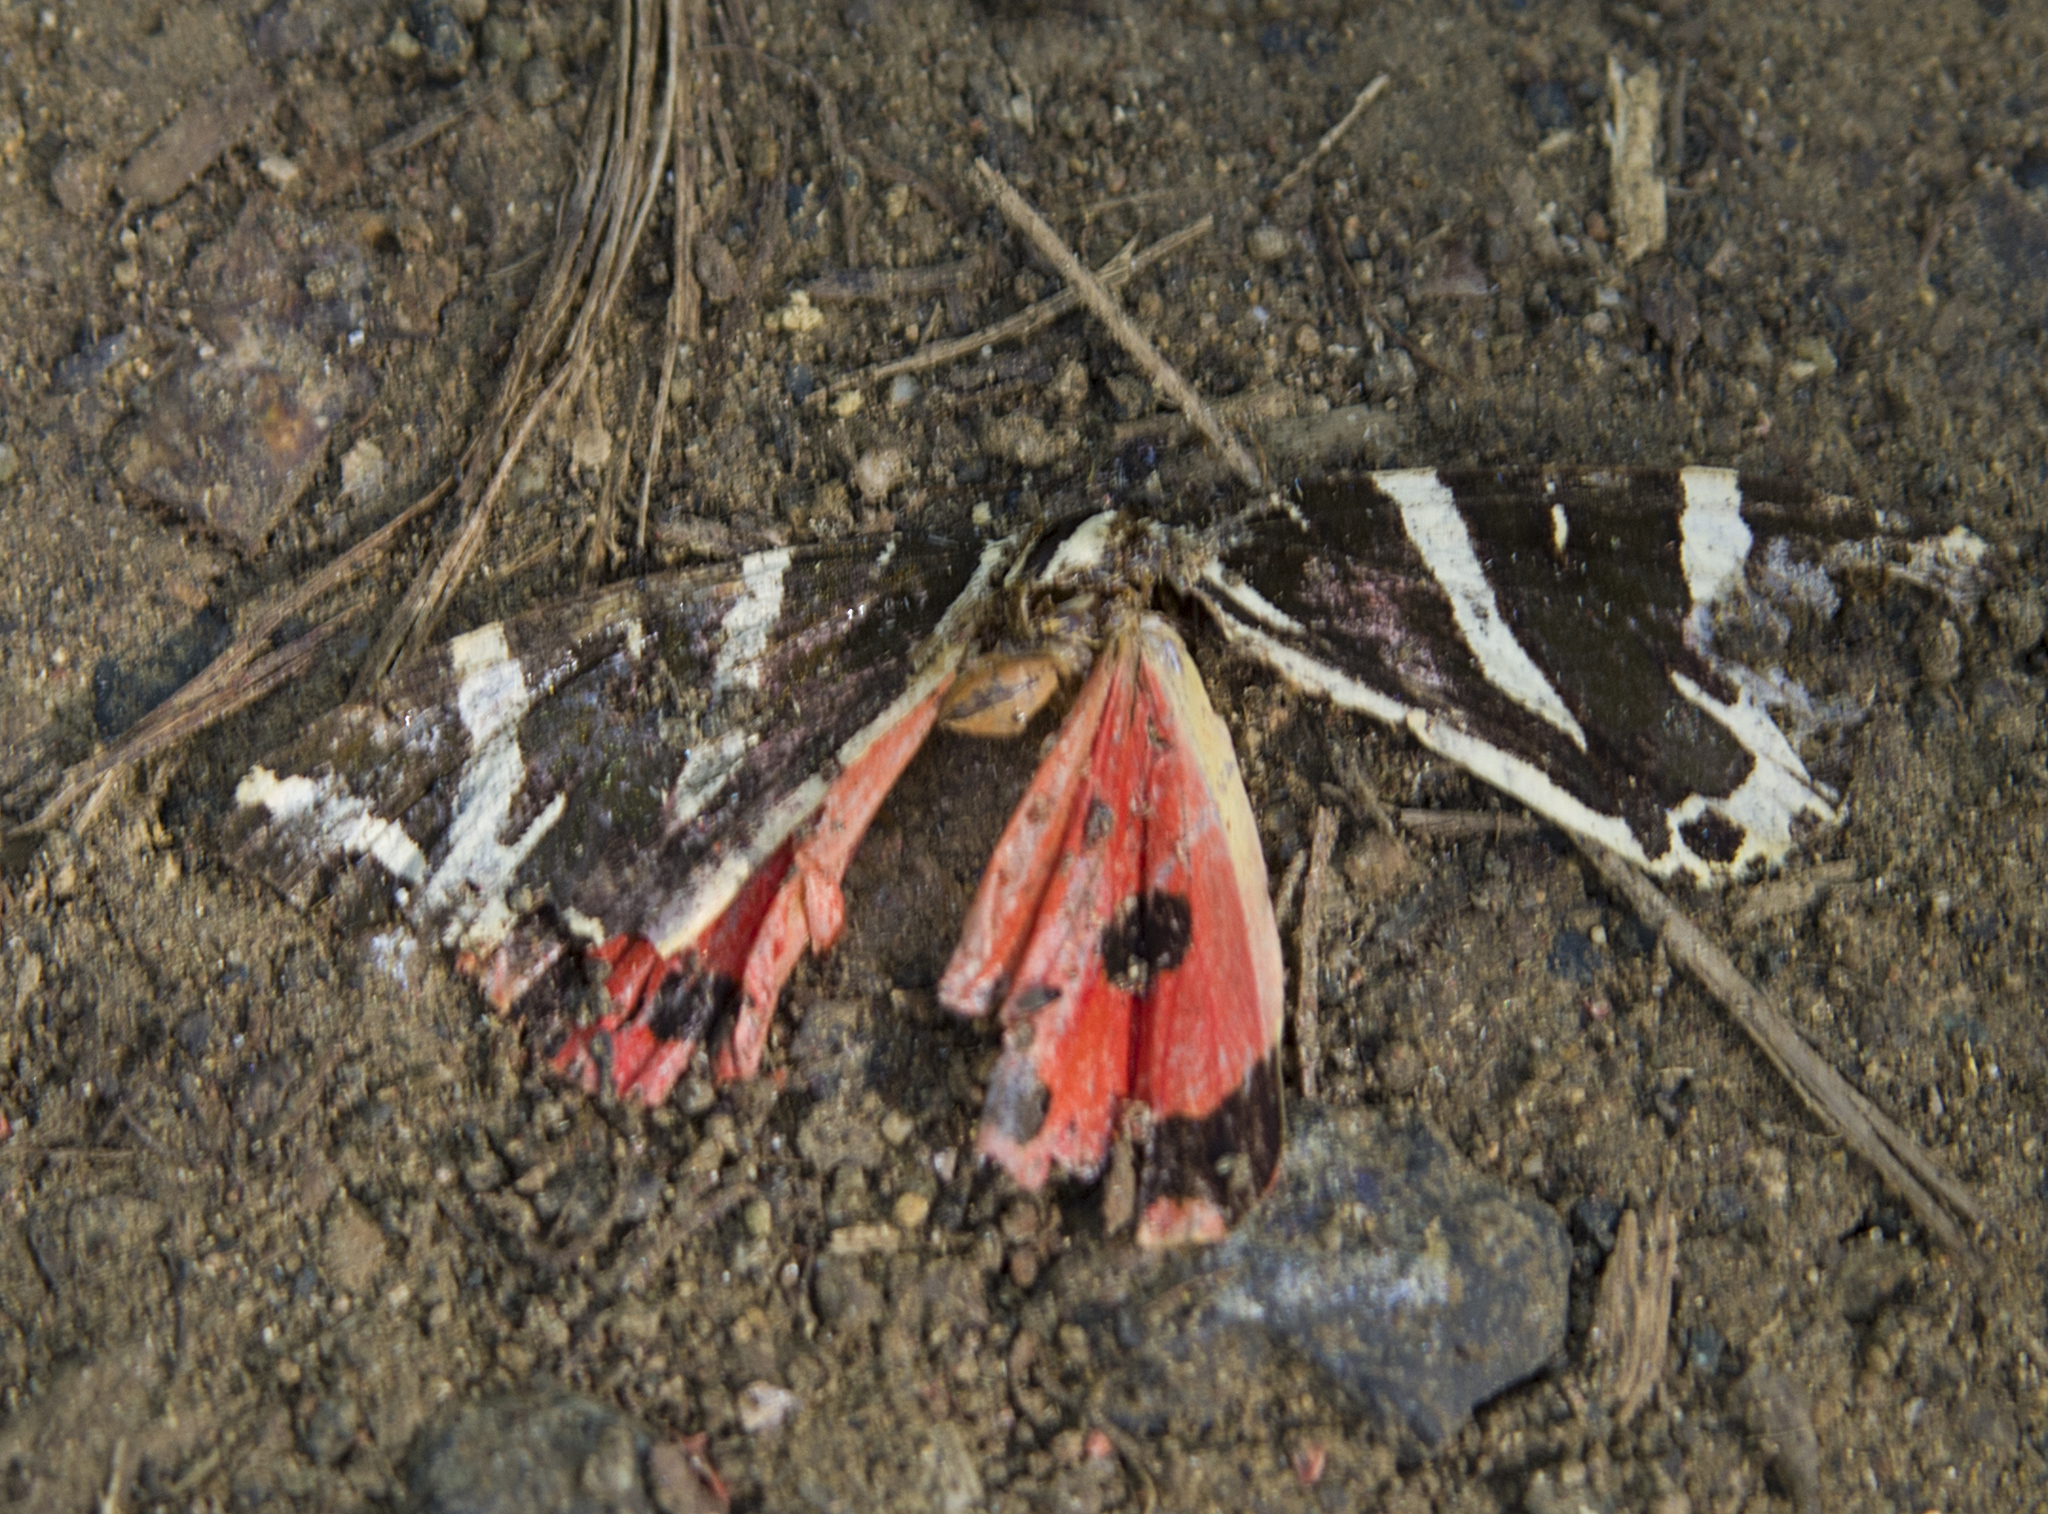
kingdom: Animalia
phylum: Arthropoda
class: Insecta
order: Lepidoptera
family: Erebidae
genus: Euplagia
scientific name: Euplagia quadripunctaria
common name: Jersey tiger
